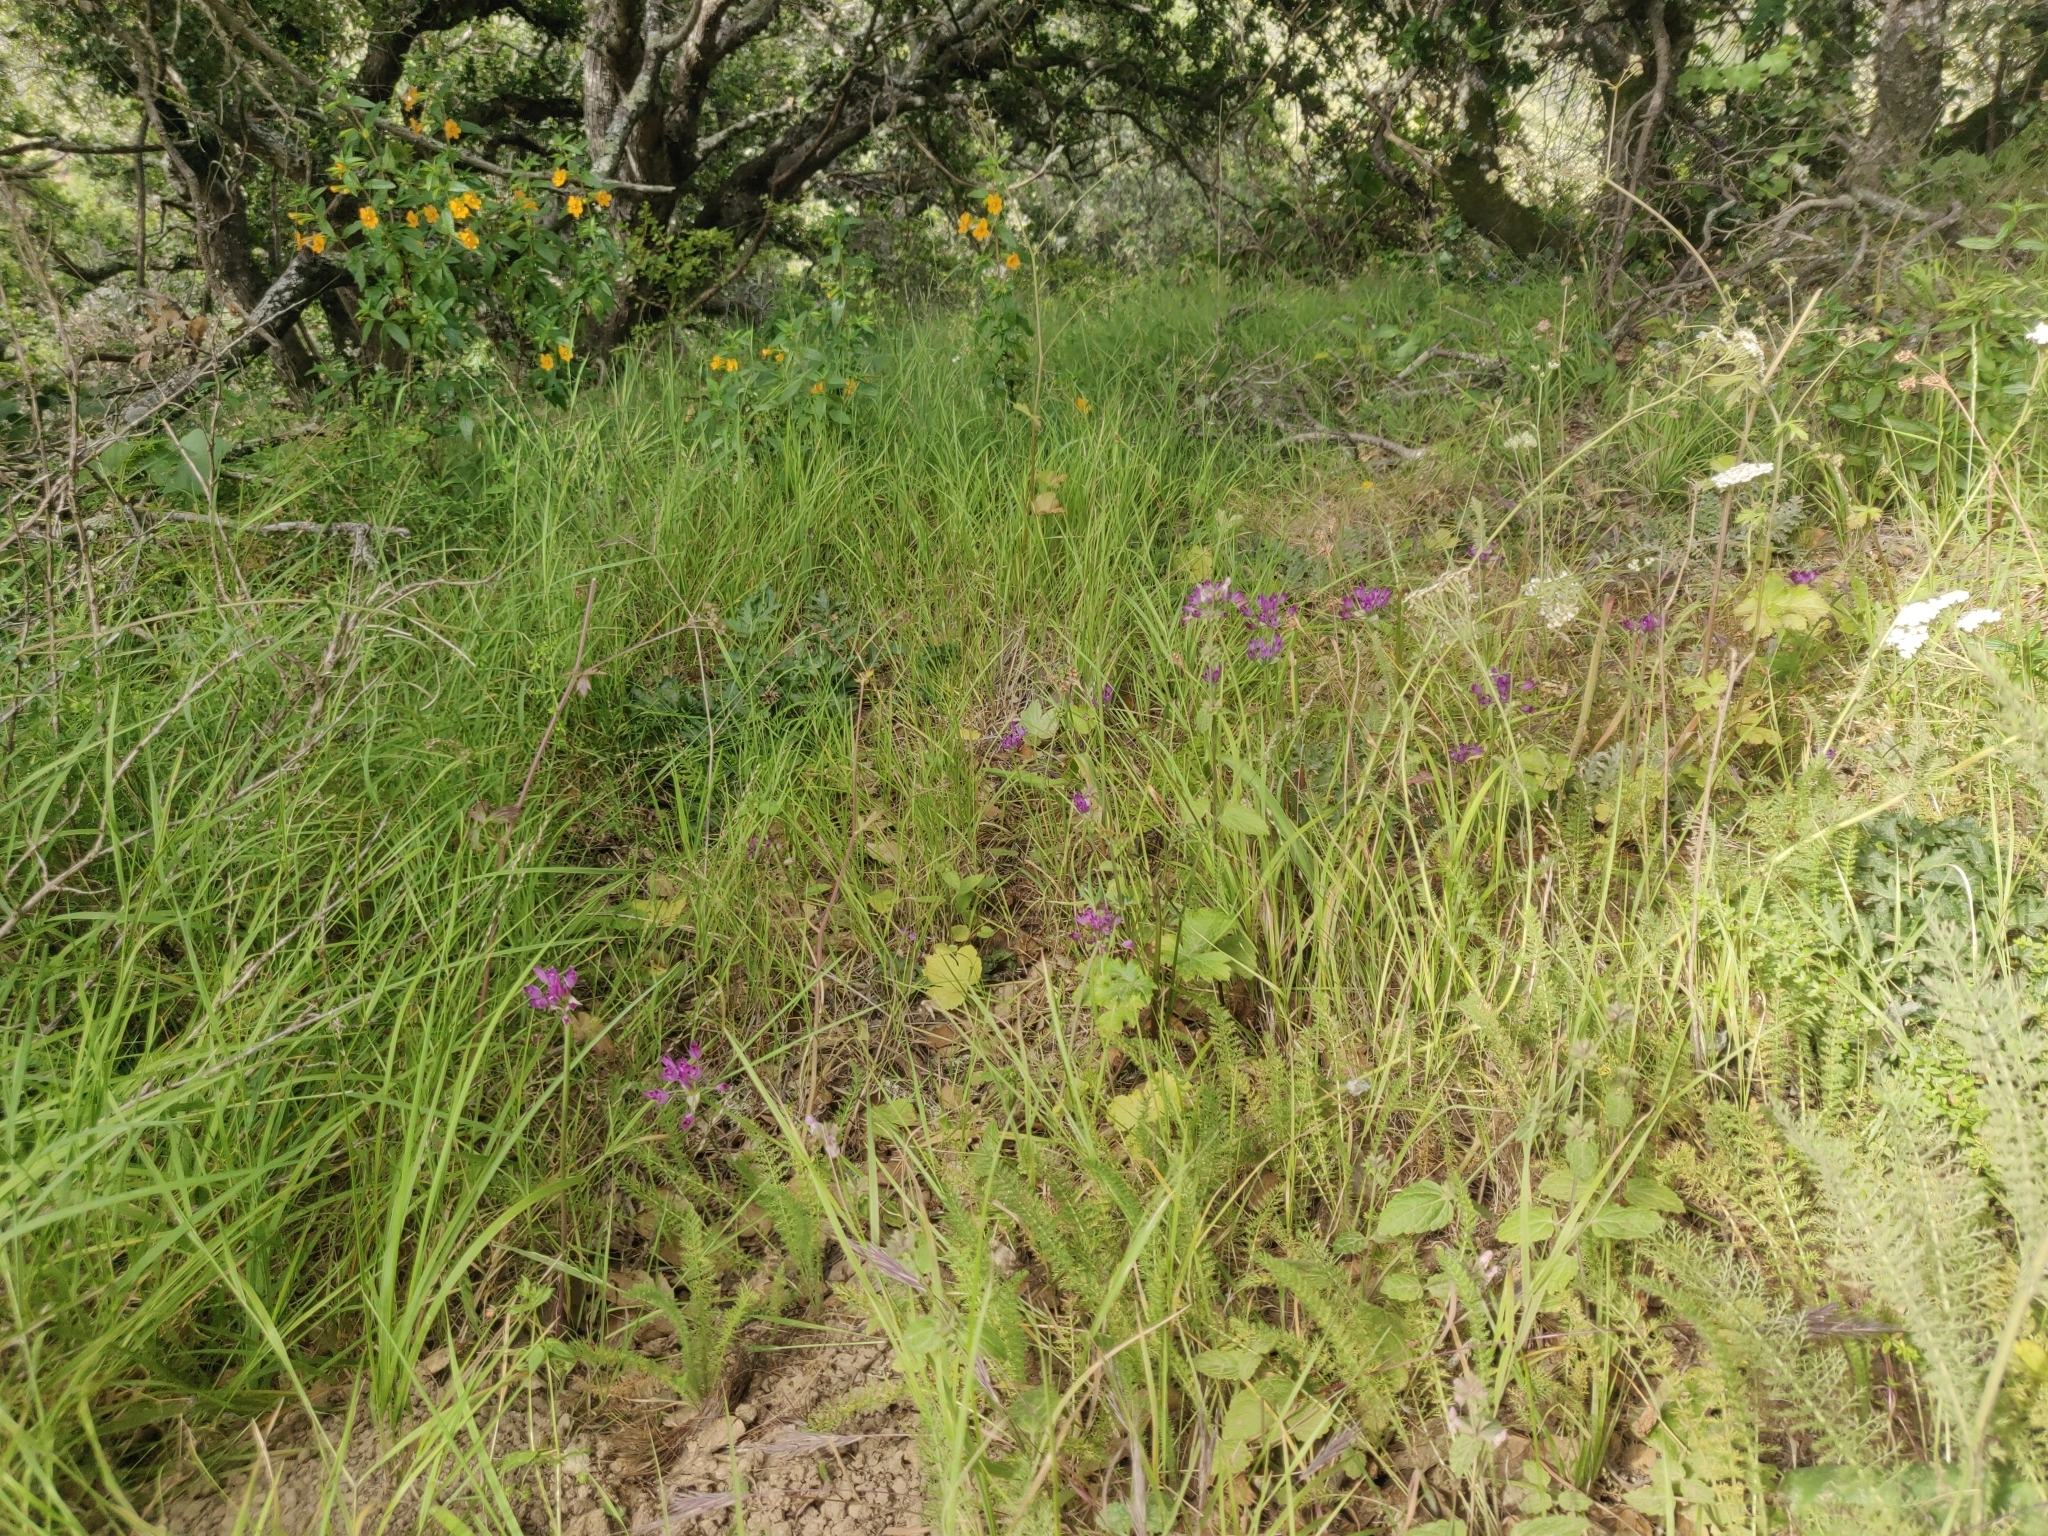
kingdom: Plantae
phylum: Tracheophyta
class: Liliopsida
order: Asparagales
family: Amaryllidaceae
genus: Allium
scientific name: Allium peninsulare
